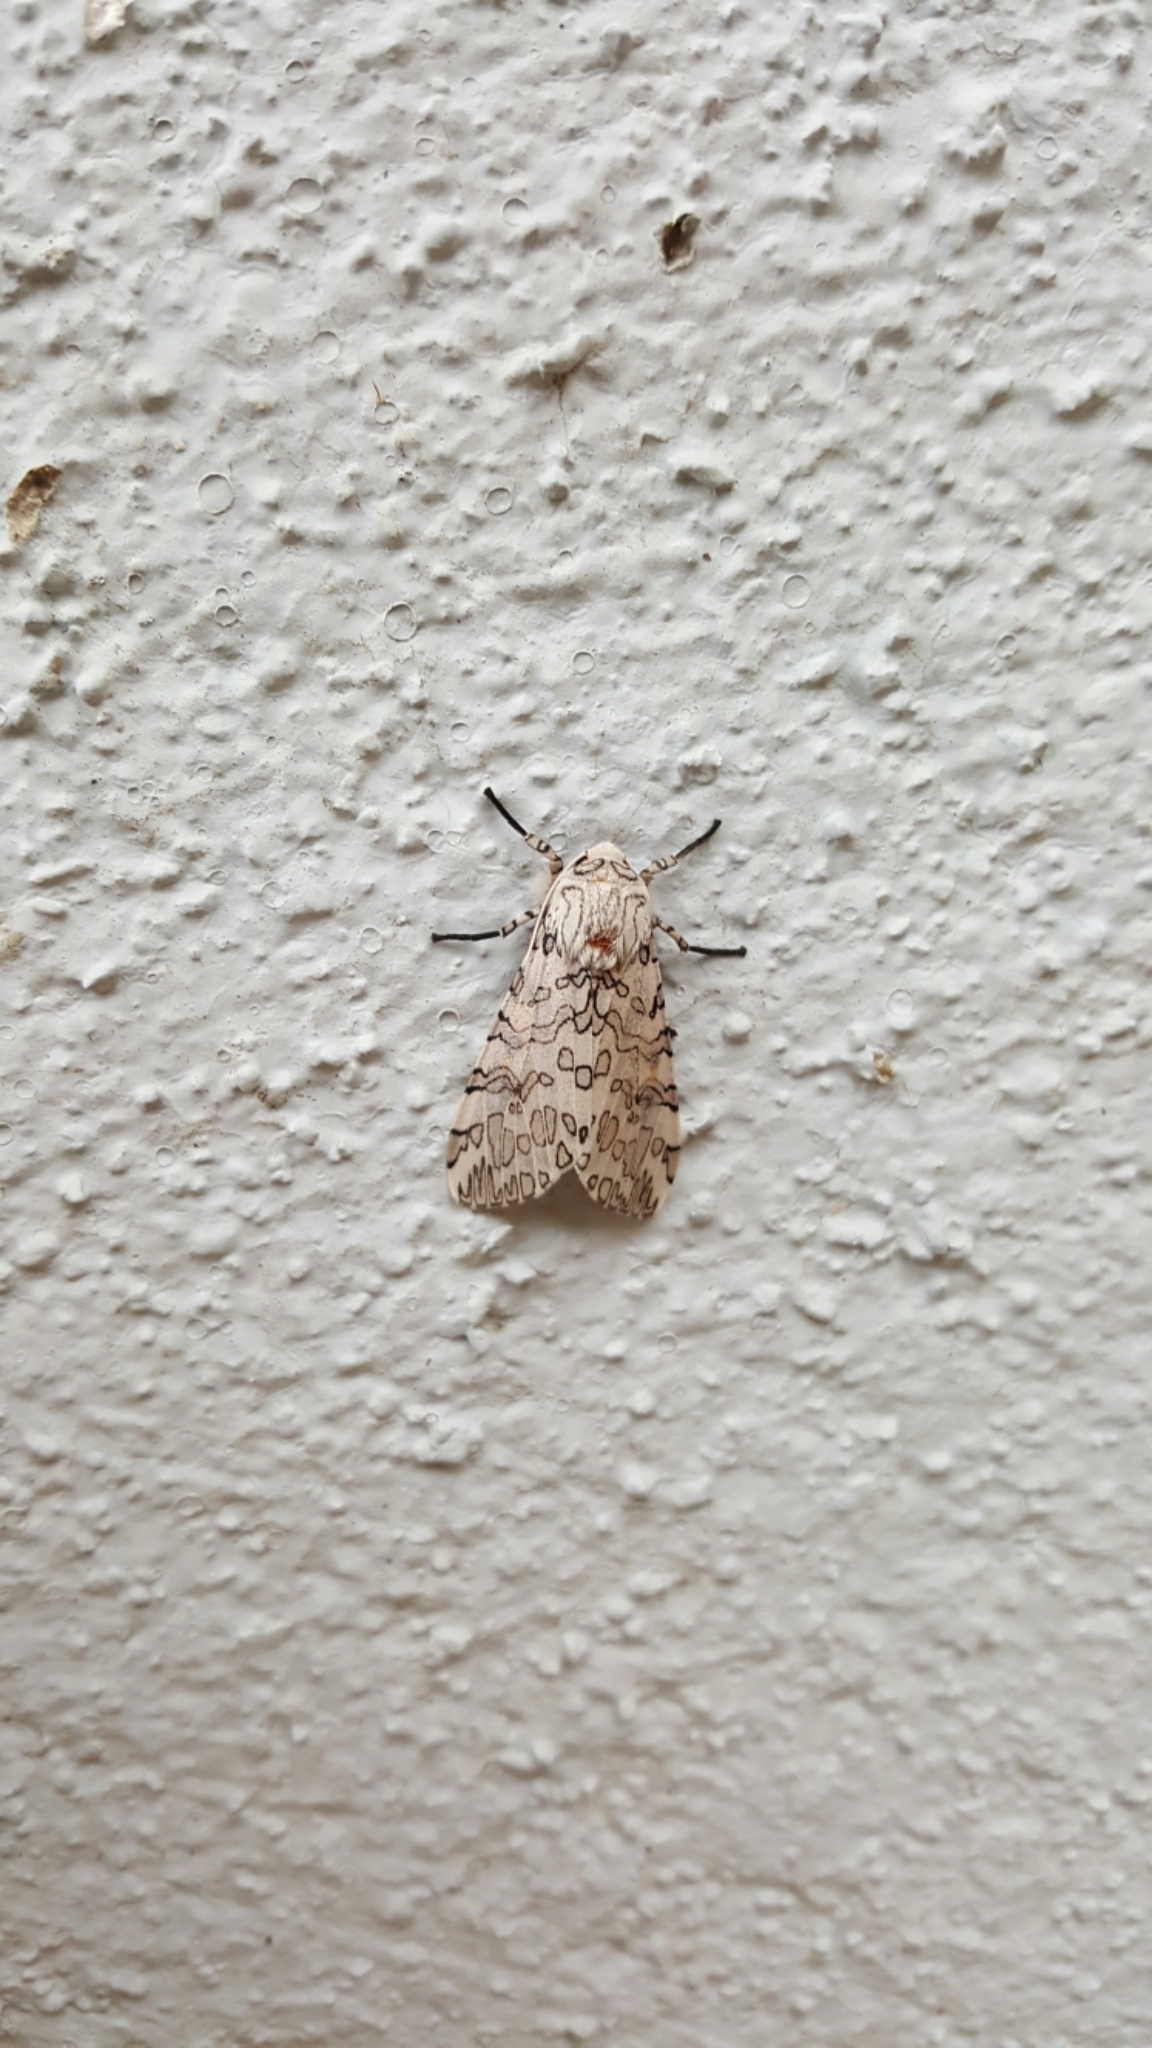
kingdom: Animalia
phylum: Arthropoda
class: Insecta
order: Lepidoptera
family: Erebidae
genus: Hypercompe
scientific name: Hypercompe albescens
